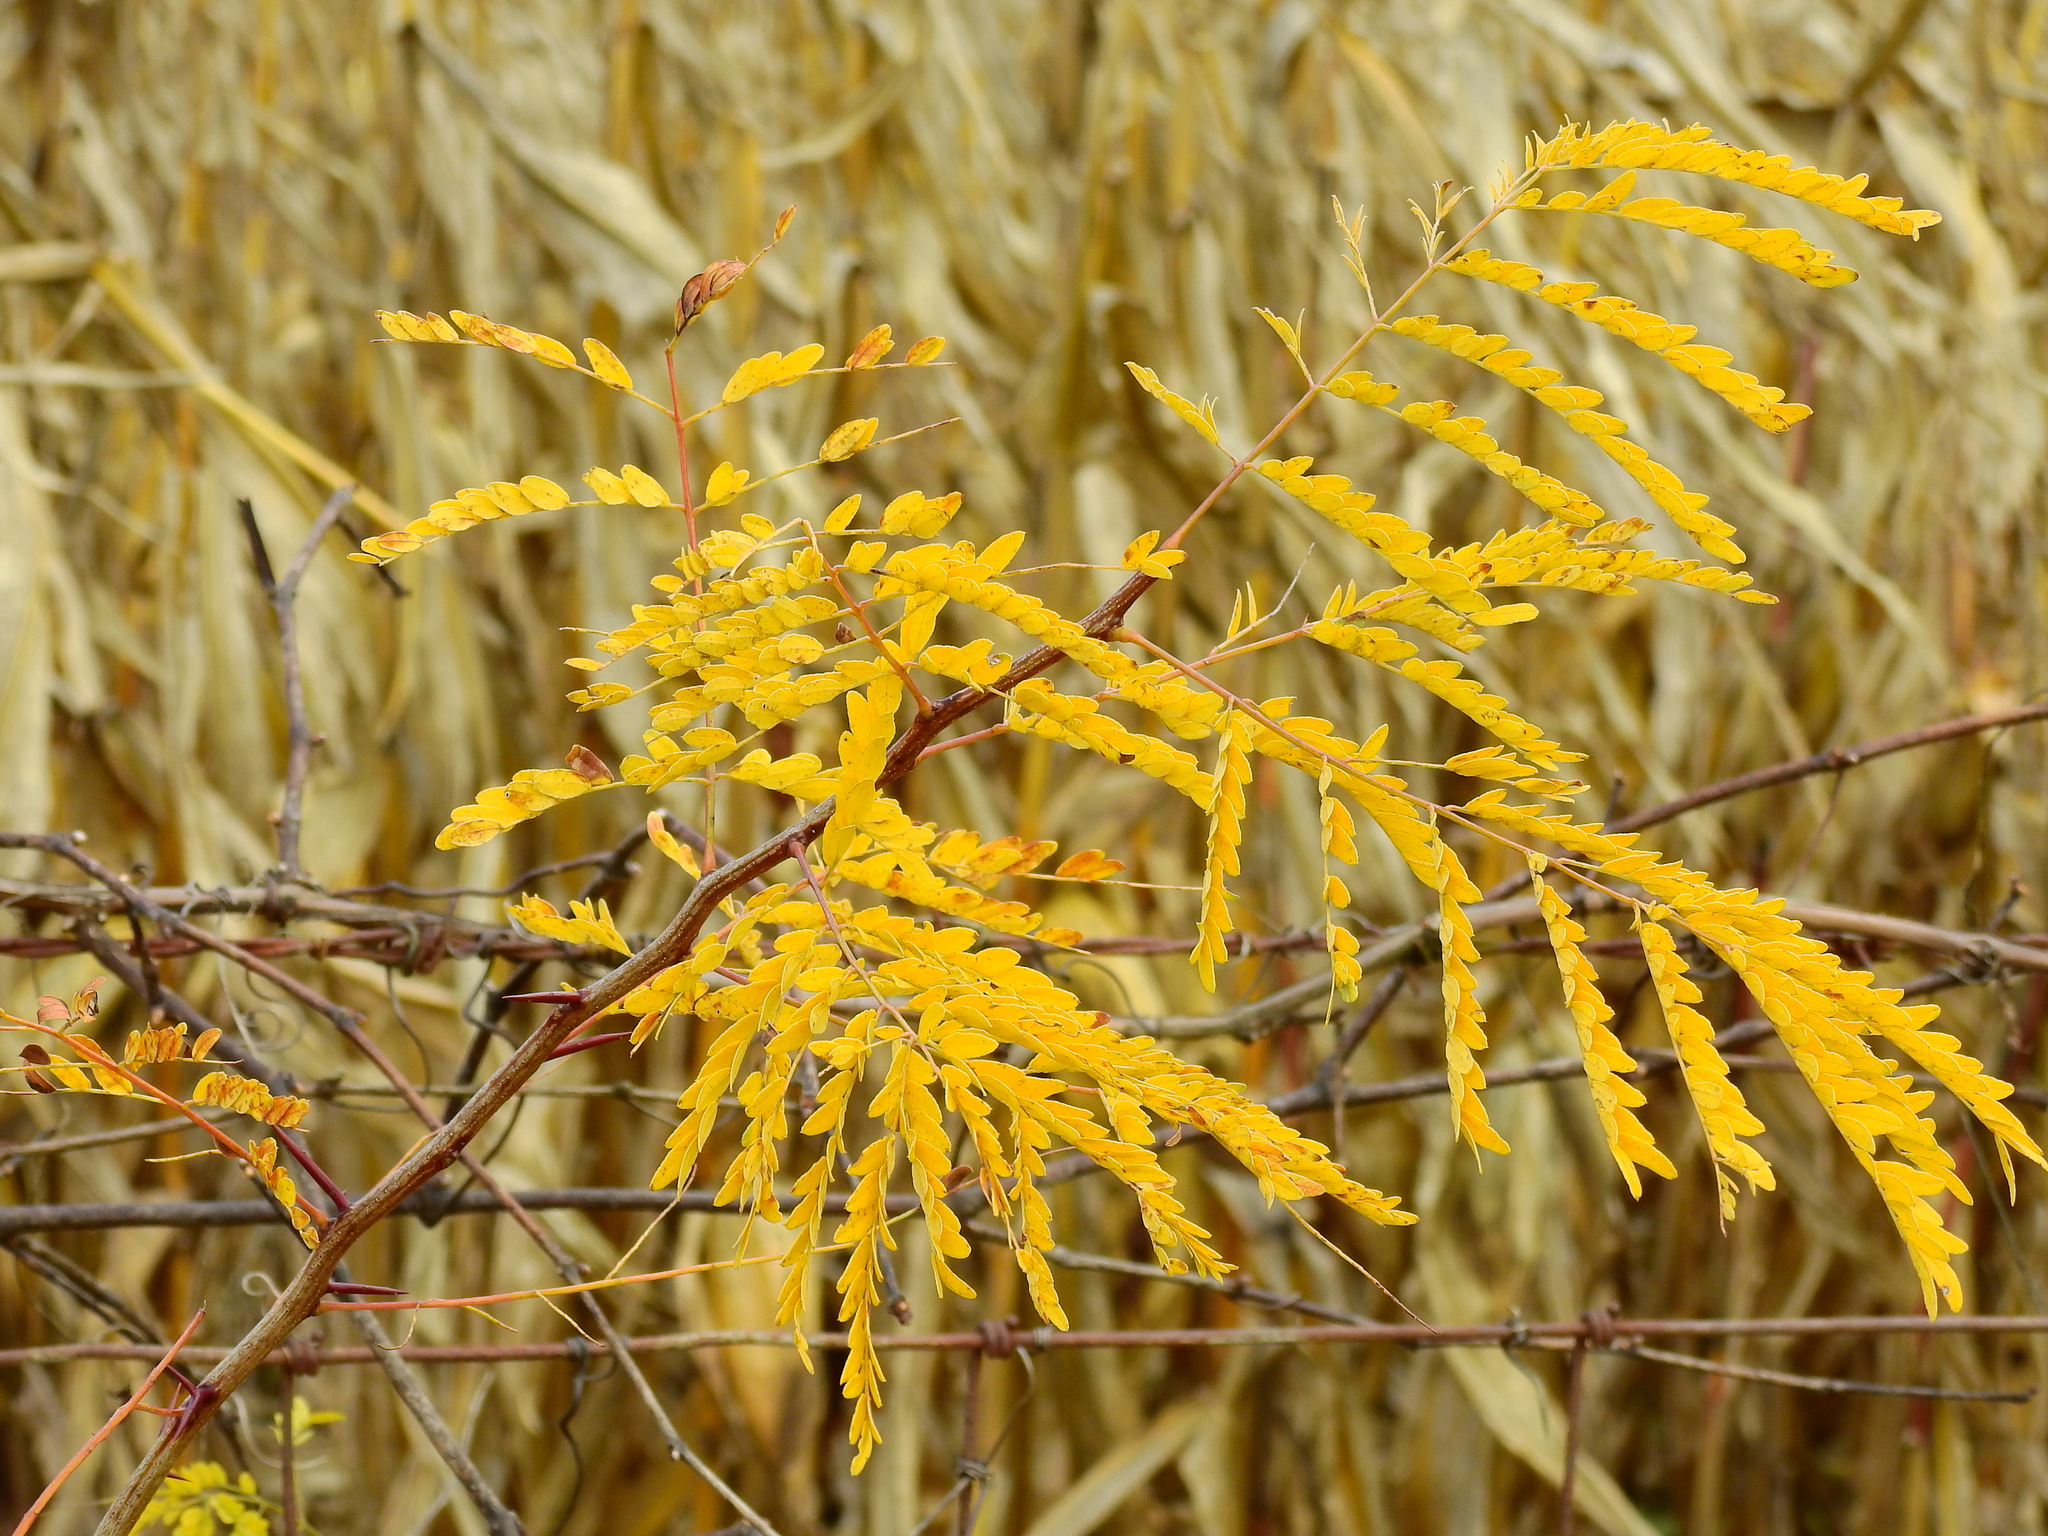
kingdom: Plantae
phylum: Tracheophyta
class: Magnoliopsida
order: Fabales
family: Fabaceae
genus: Gleditsia
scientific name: Gleditsia triacanthos
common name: Common honeylocust
